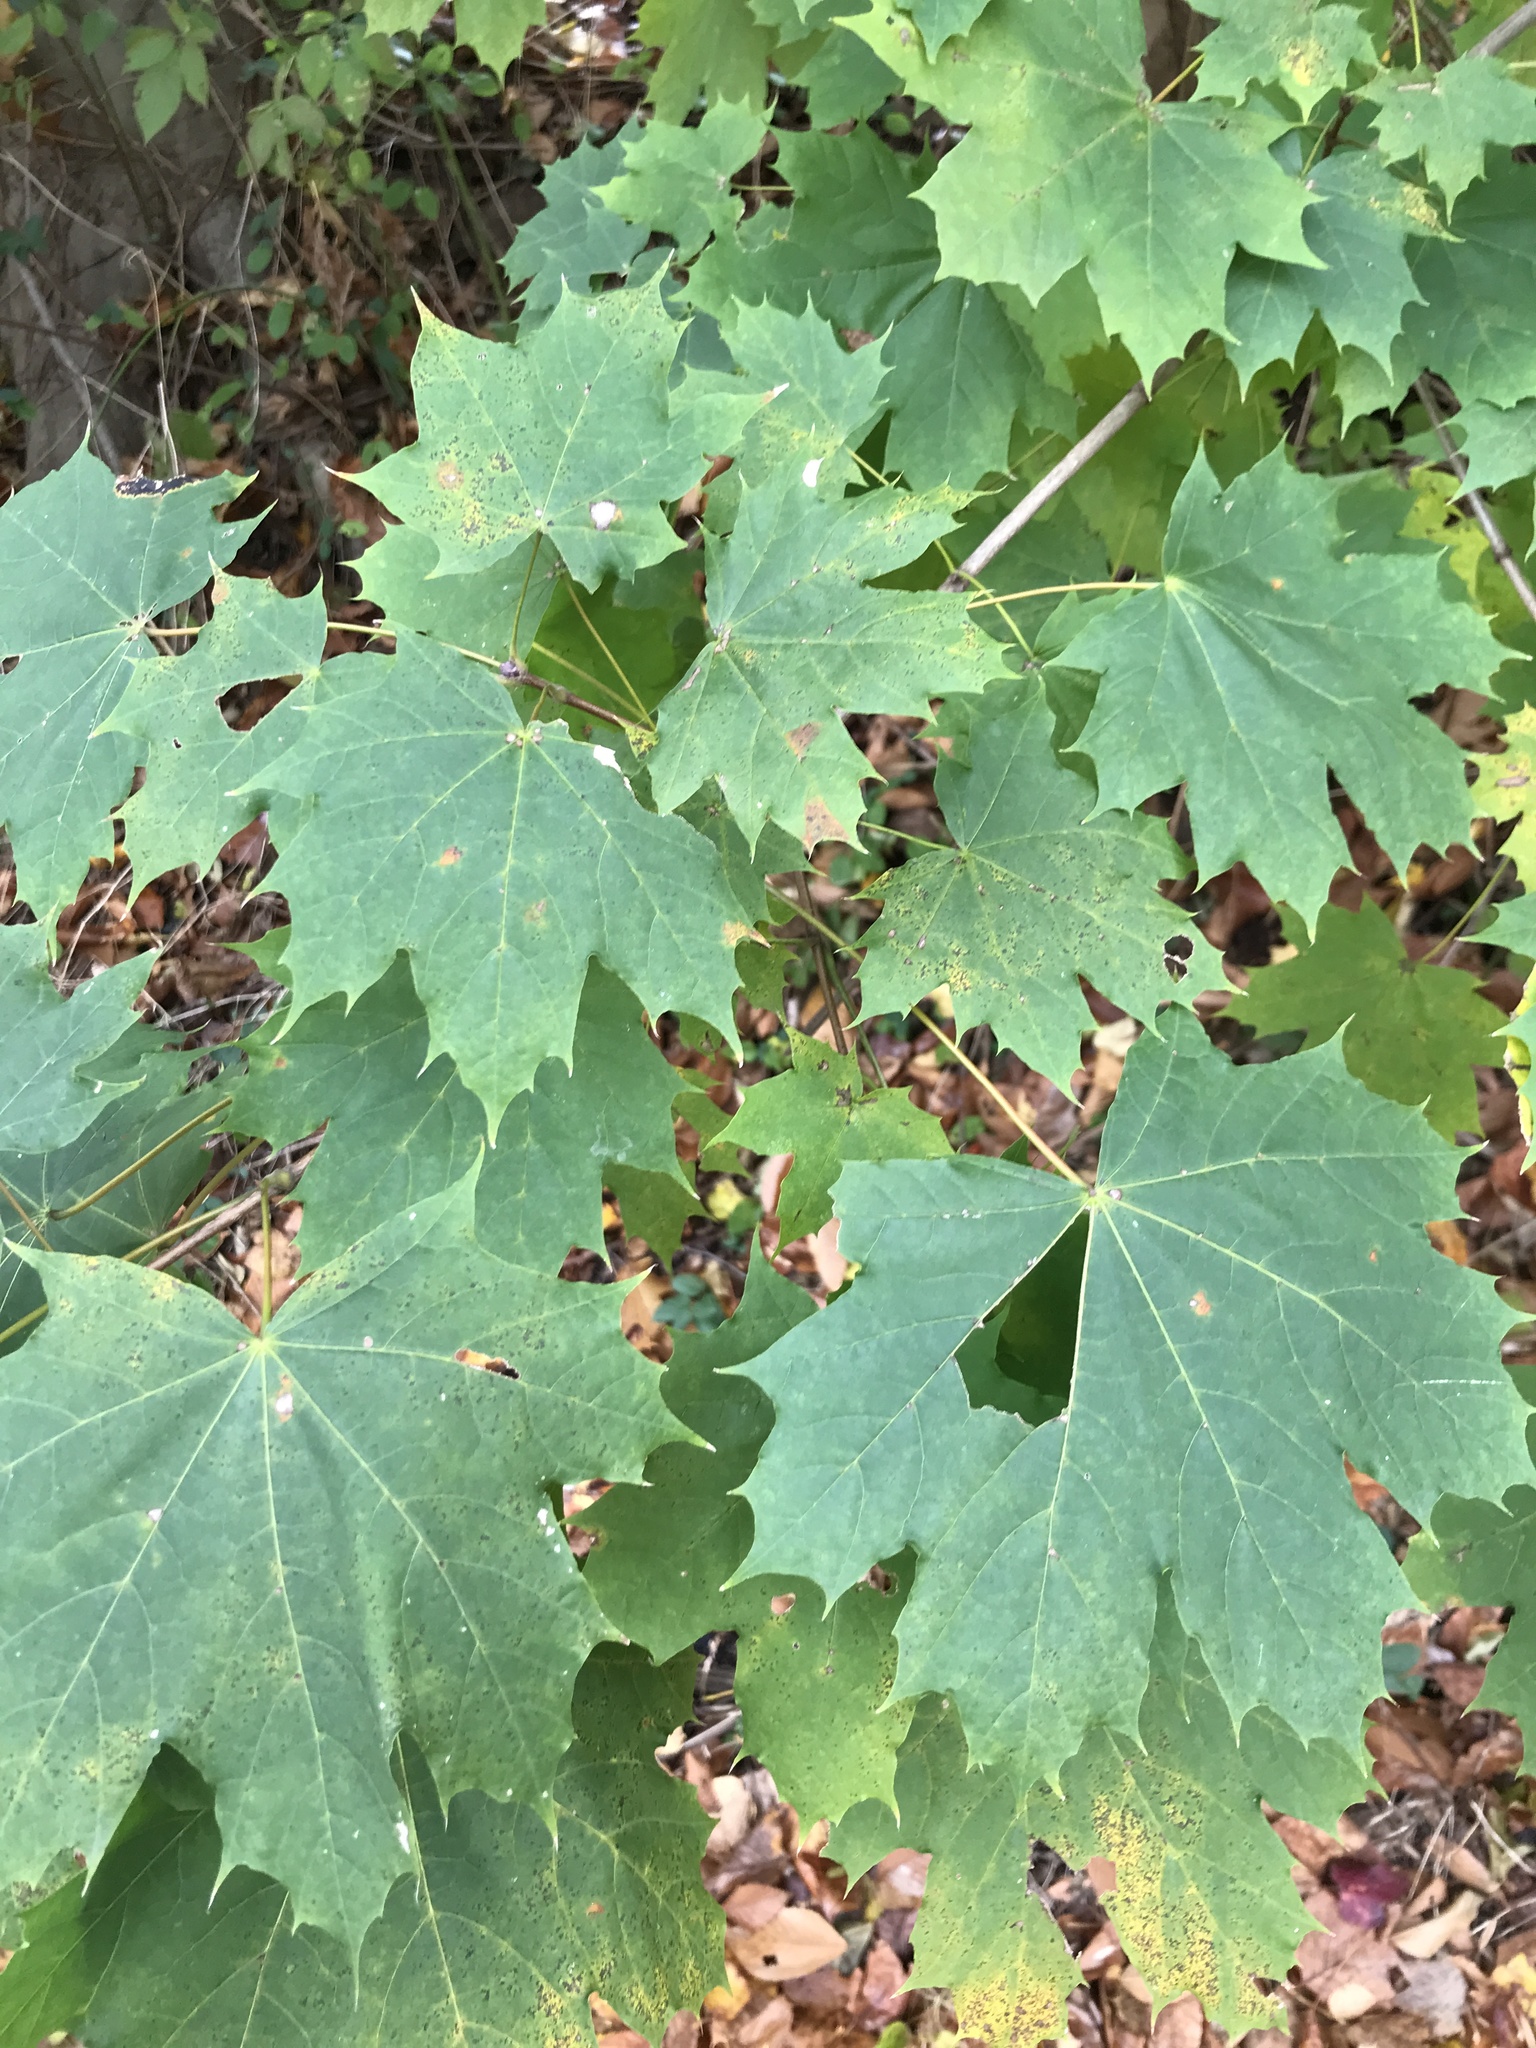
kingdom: Plantae
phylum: Tracheophyta
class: Magnoliopsida
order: Sapindales
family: Sapindaceae
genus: Acer
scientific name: Acer platanoides
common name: Norway maple
